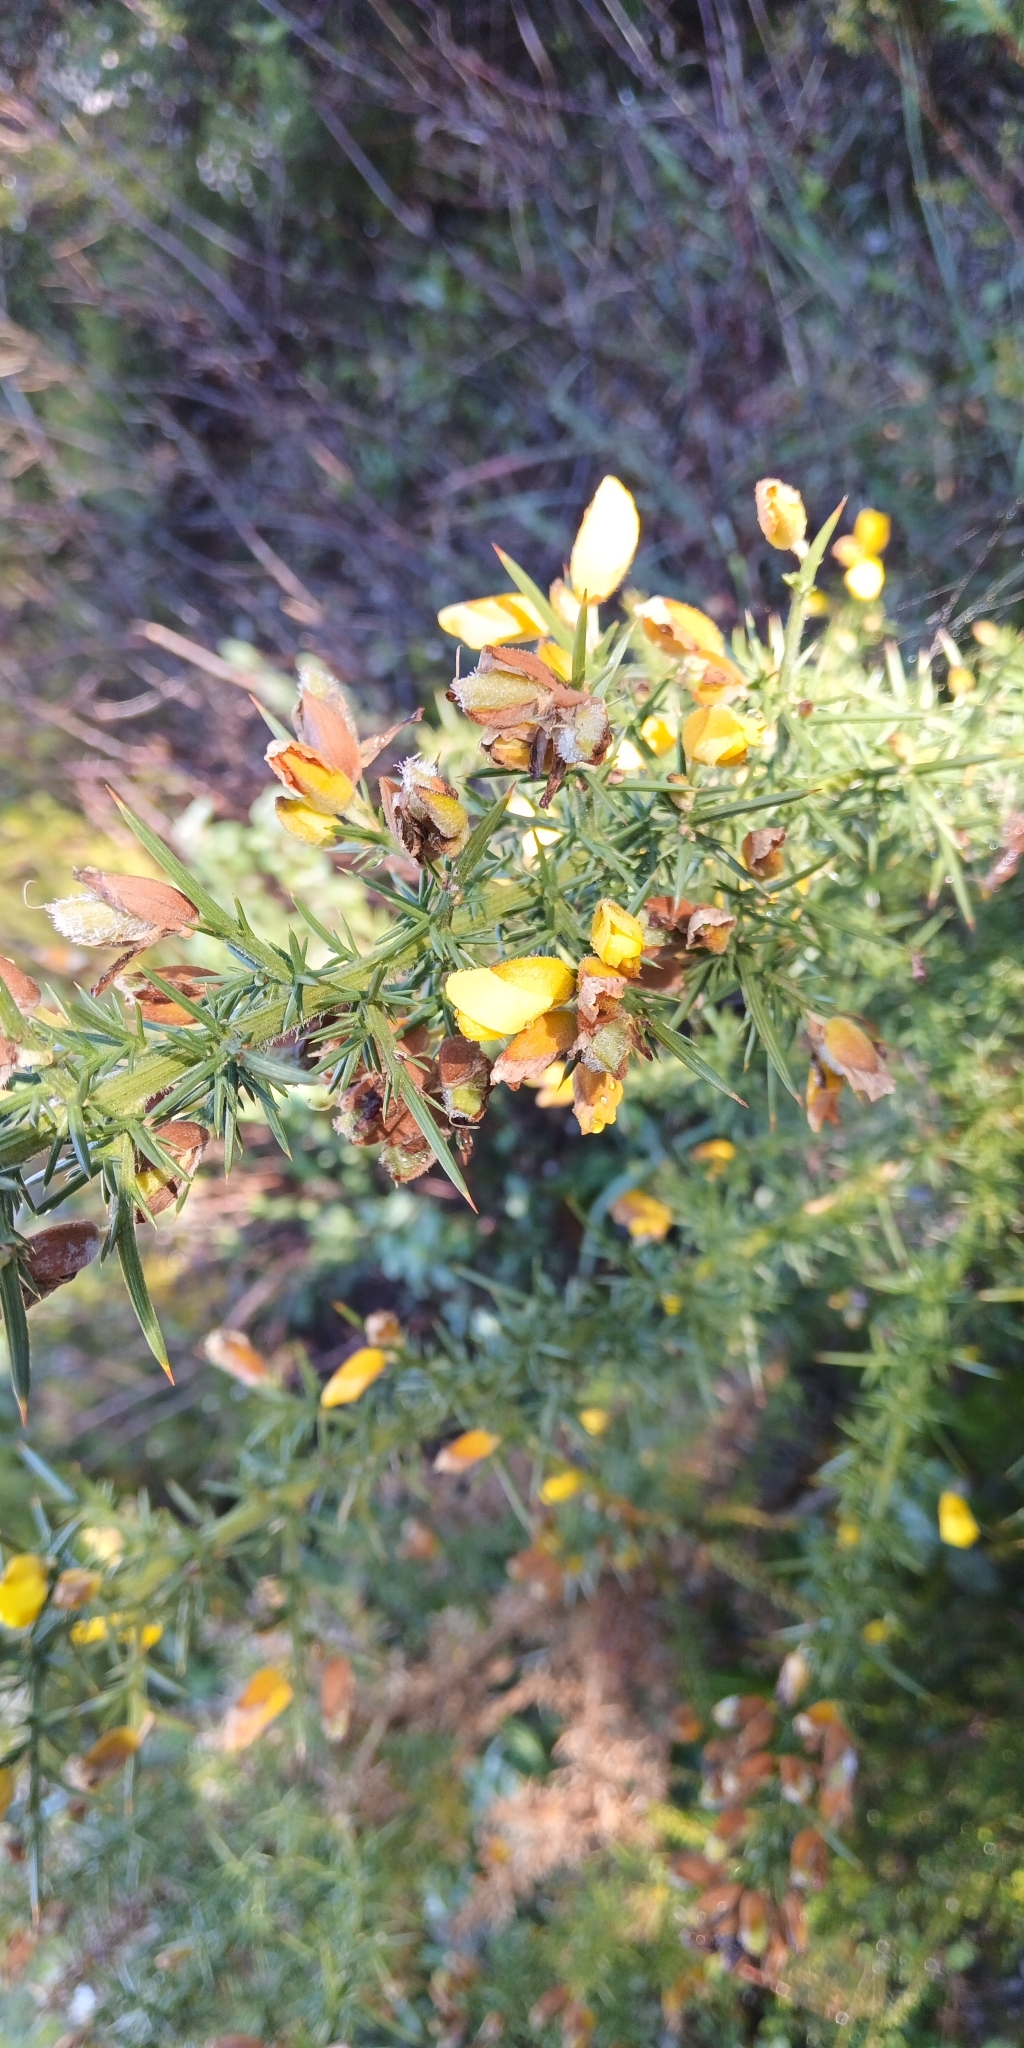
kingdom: Plantae
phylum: Tracheophyta
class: Magnoliopsida
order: Fabales
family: Fabaceae
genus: Ulex
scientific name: Ulex europaeus
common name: Common gorse
